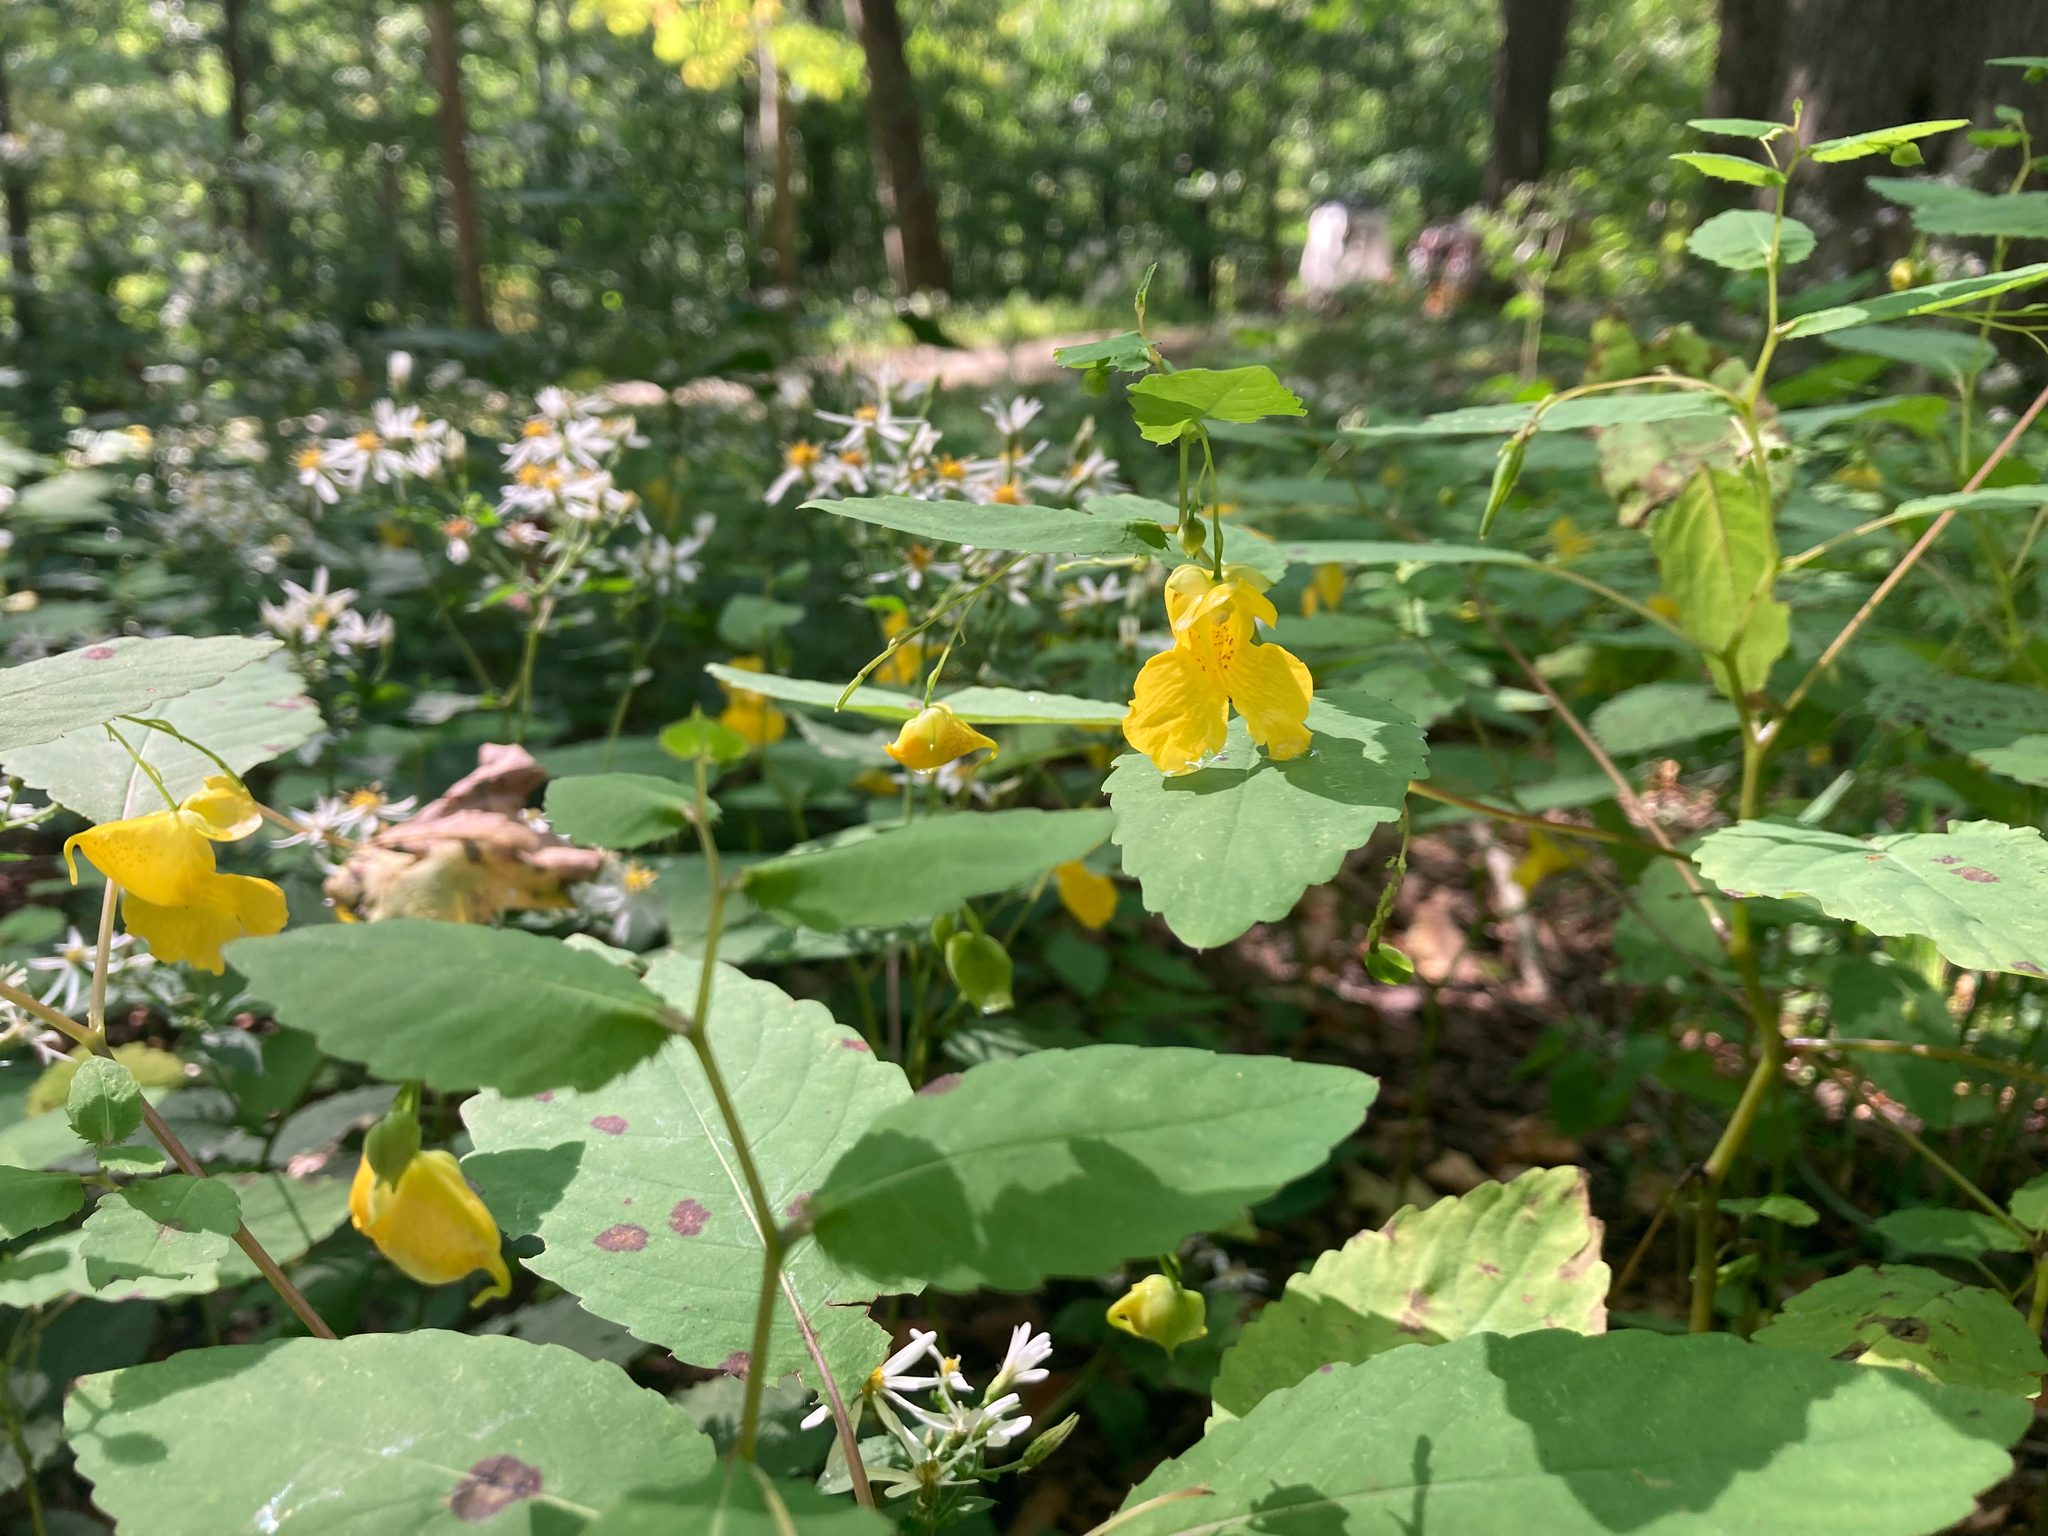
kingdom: Plantae
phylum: Tracheophyta
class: Magnoliopsida
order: Ericales
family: Balsaminaceae
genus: Impatiens
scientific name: Impatiens pallida
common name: Pale snapweed
